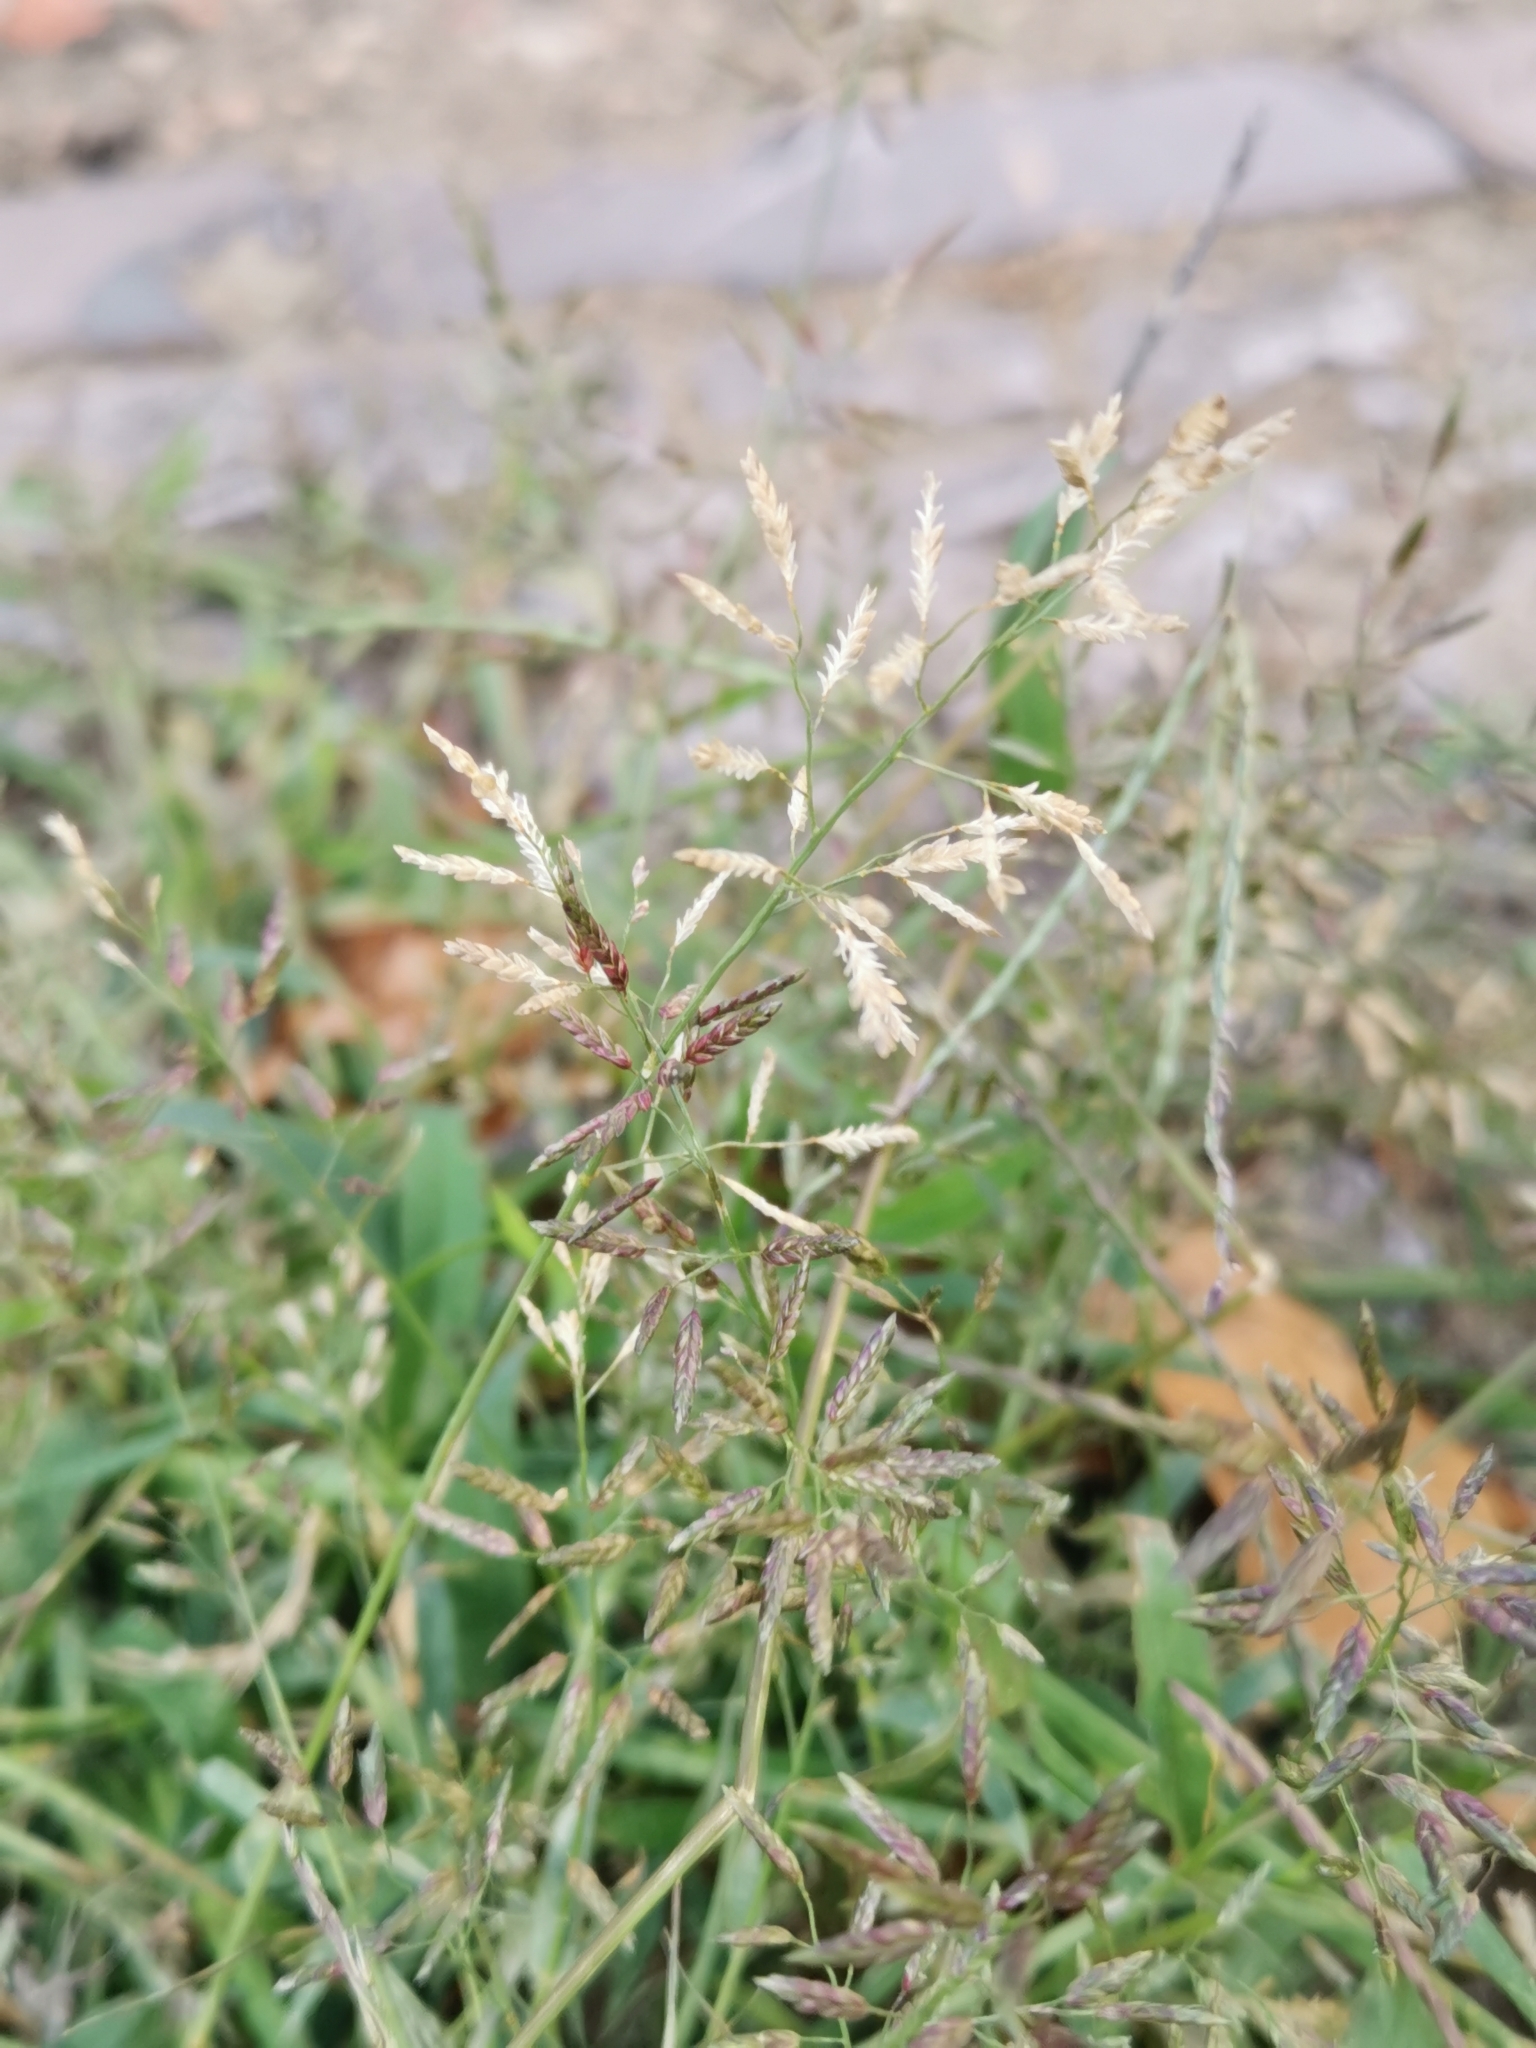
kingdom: Plantae
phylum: Tracheophyta
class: Liliopsida
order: Poales
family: Poaceae
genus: Eragrostis
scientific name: Eragrostis minor
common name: Small love-grass
